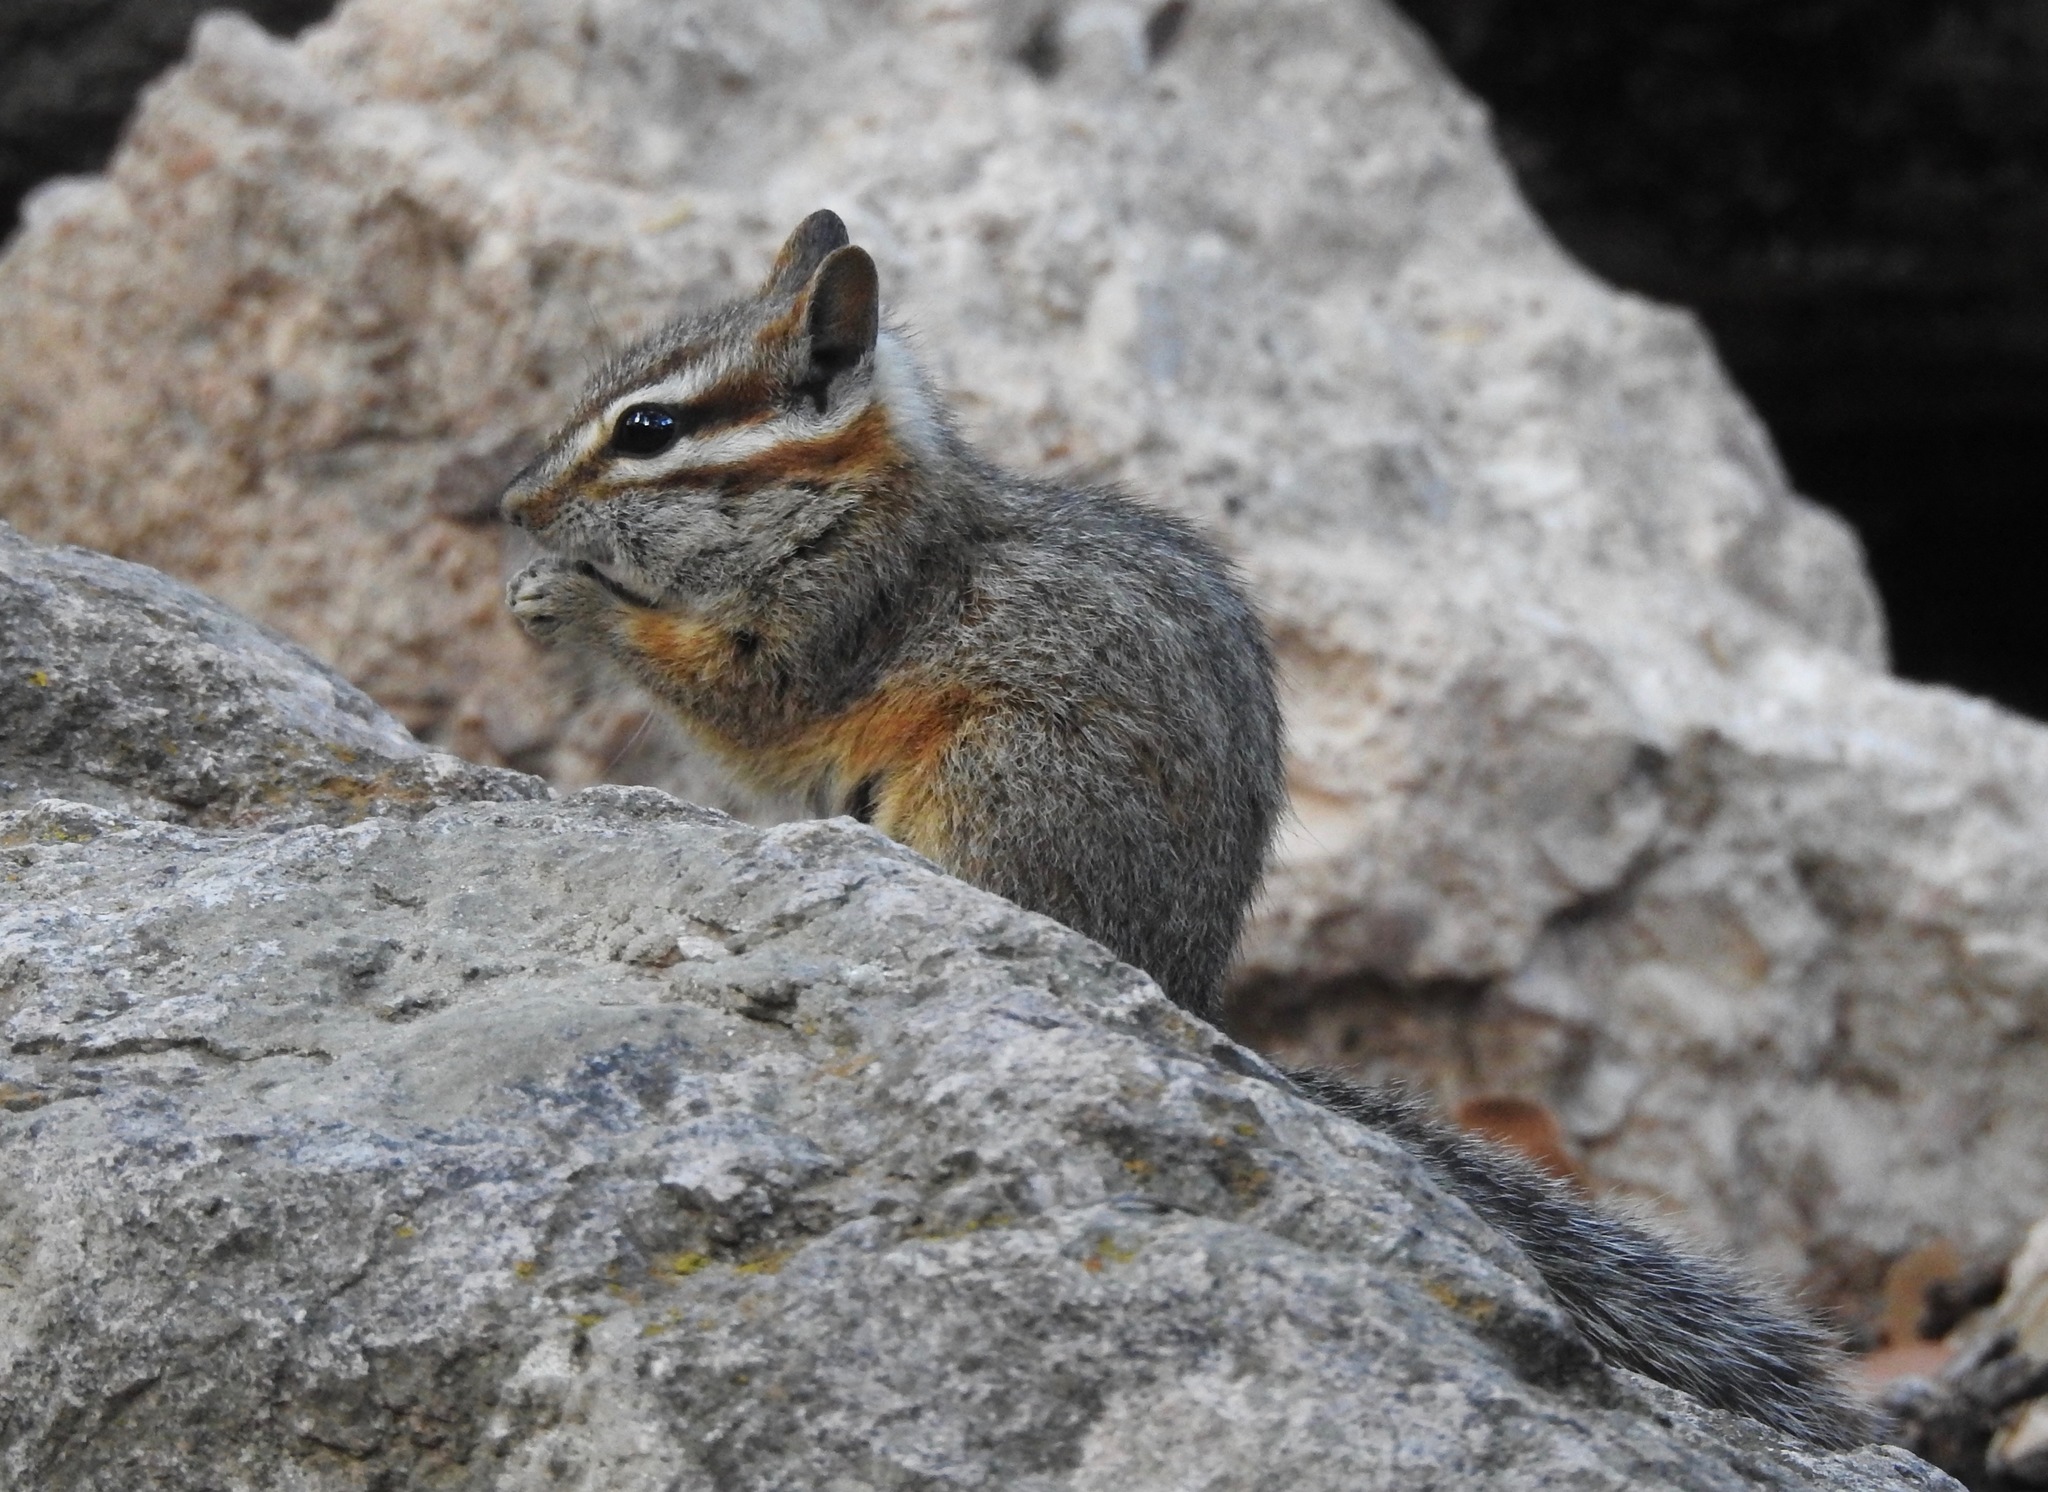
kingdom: Animalia
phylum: Chordata
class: Mammalia
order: Rodentia
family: Sciuridae
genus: Tamias
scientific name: Tamias dorsalis
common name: Cliff chipmunk
